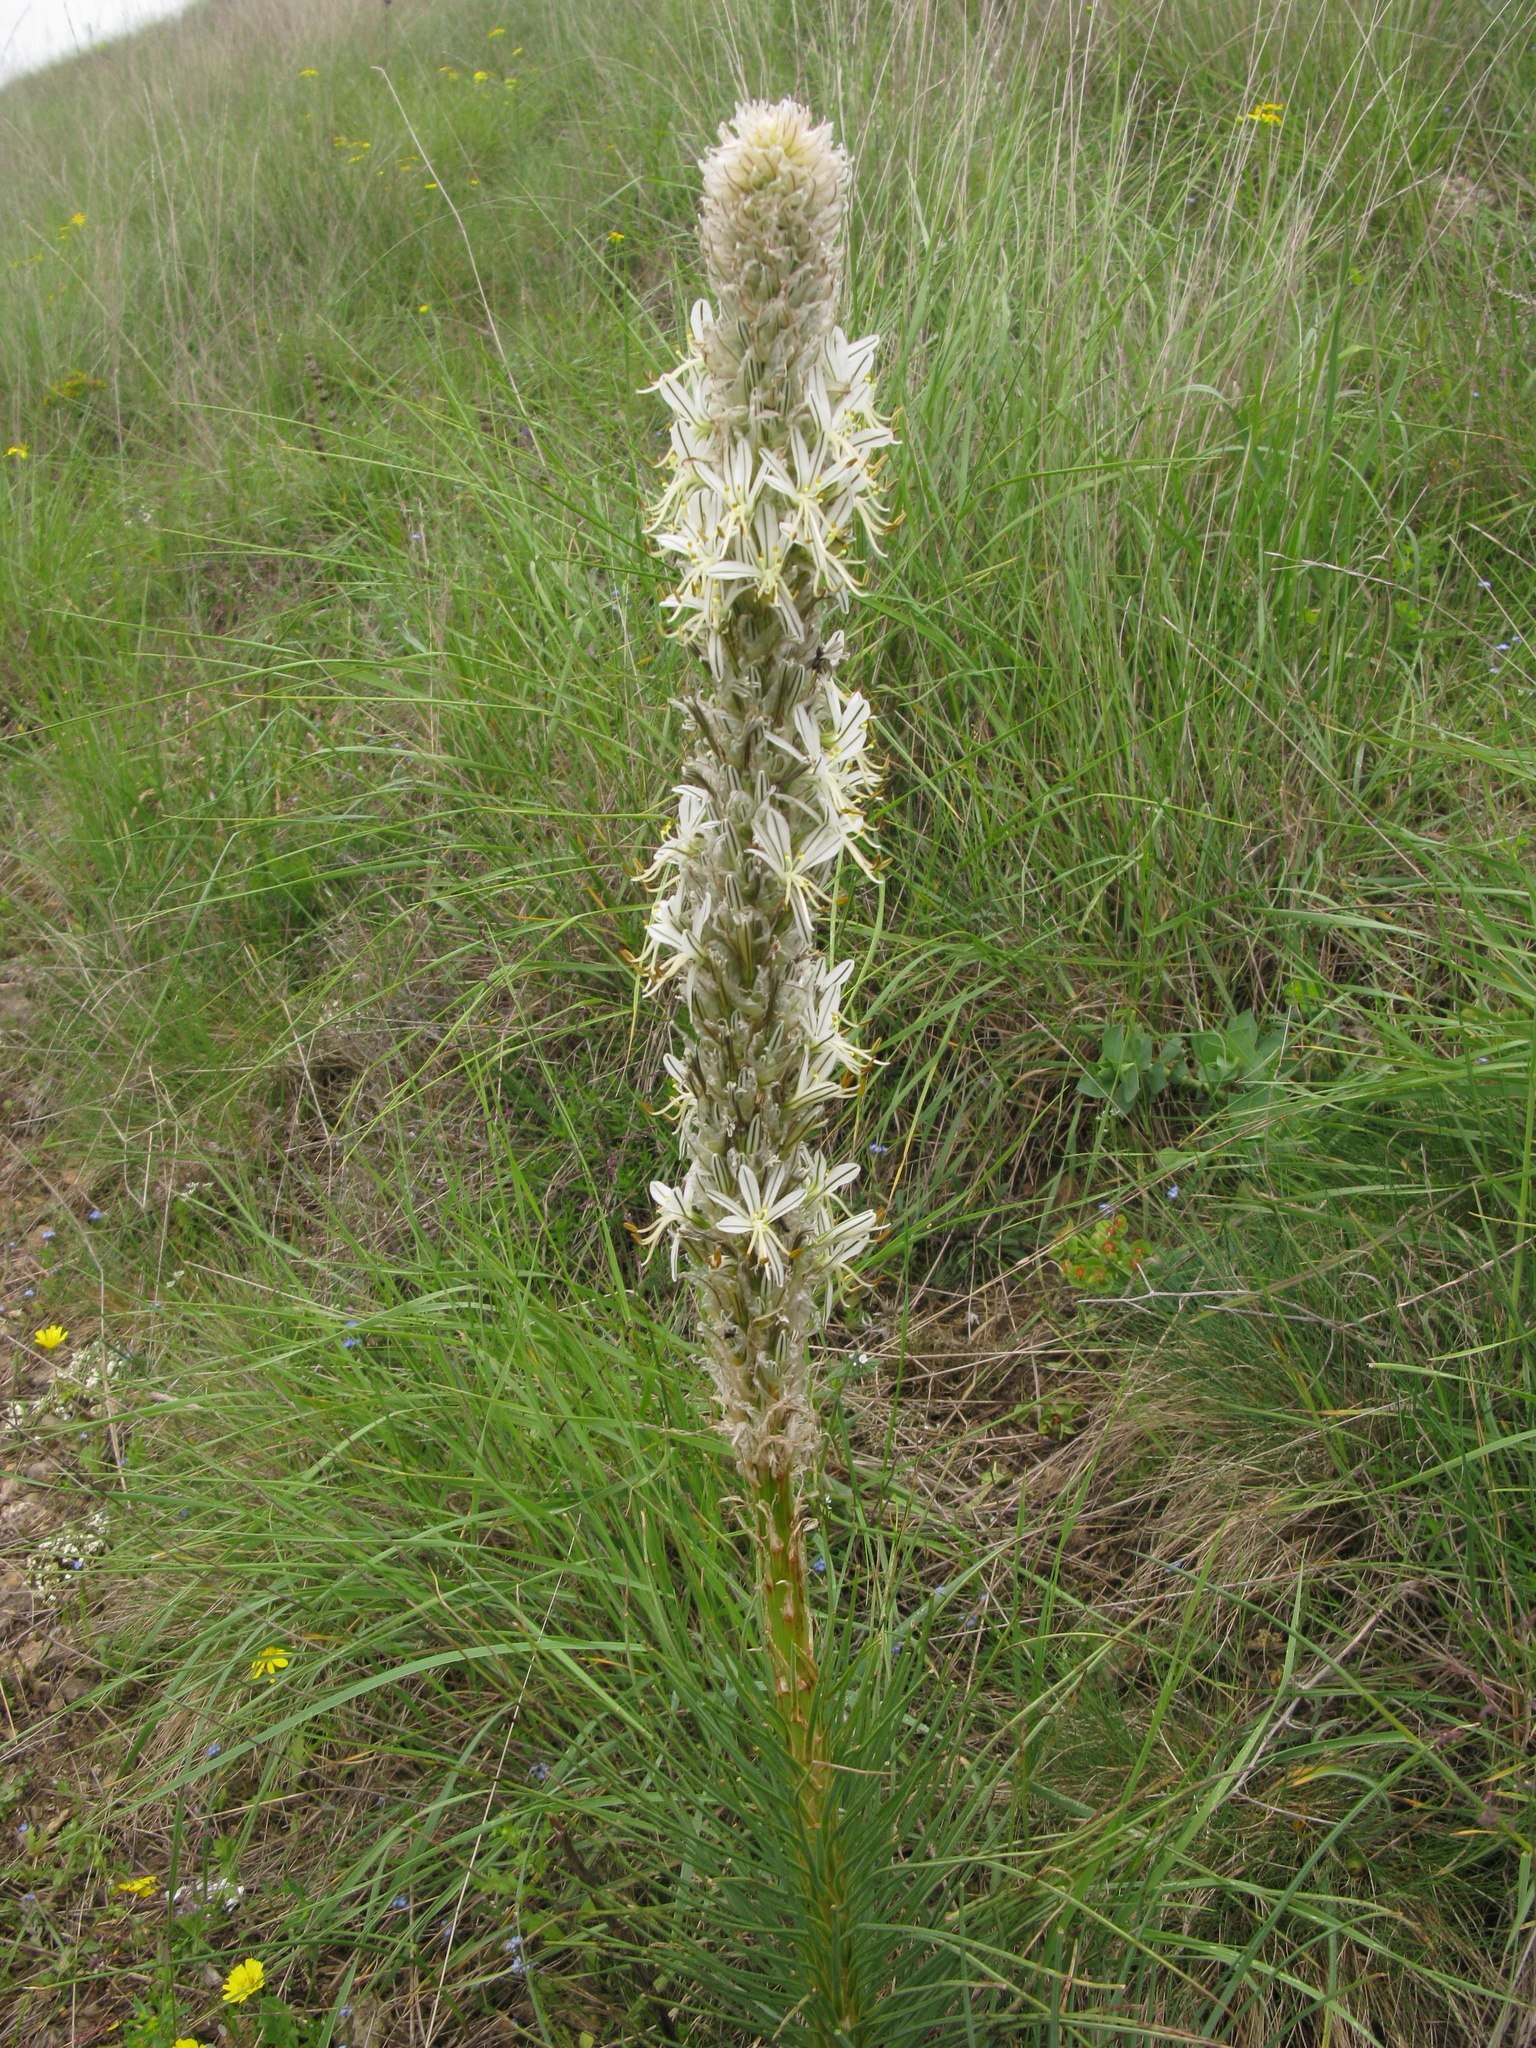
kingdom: Plantae
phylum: Tracheophyta
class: Liliopsida
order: Asparagales
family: Asphodelaceae
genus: Asphodeline
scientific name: Asphodeline taurica
